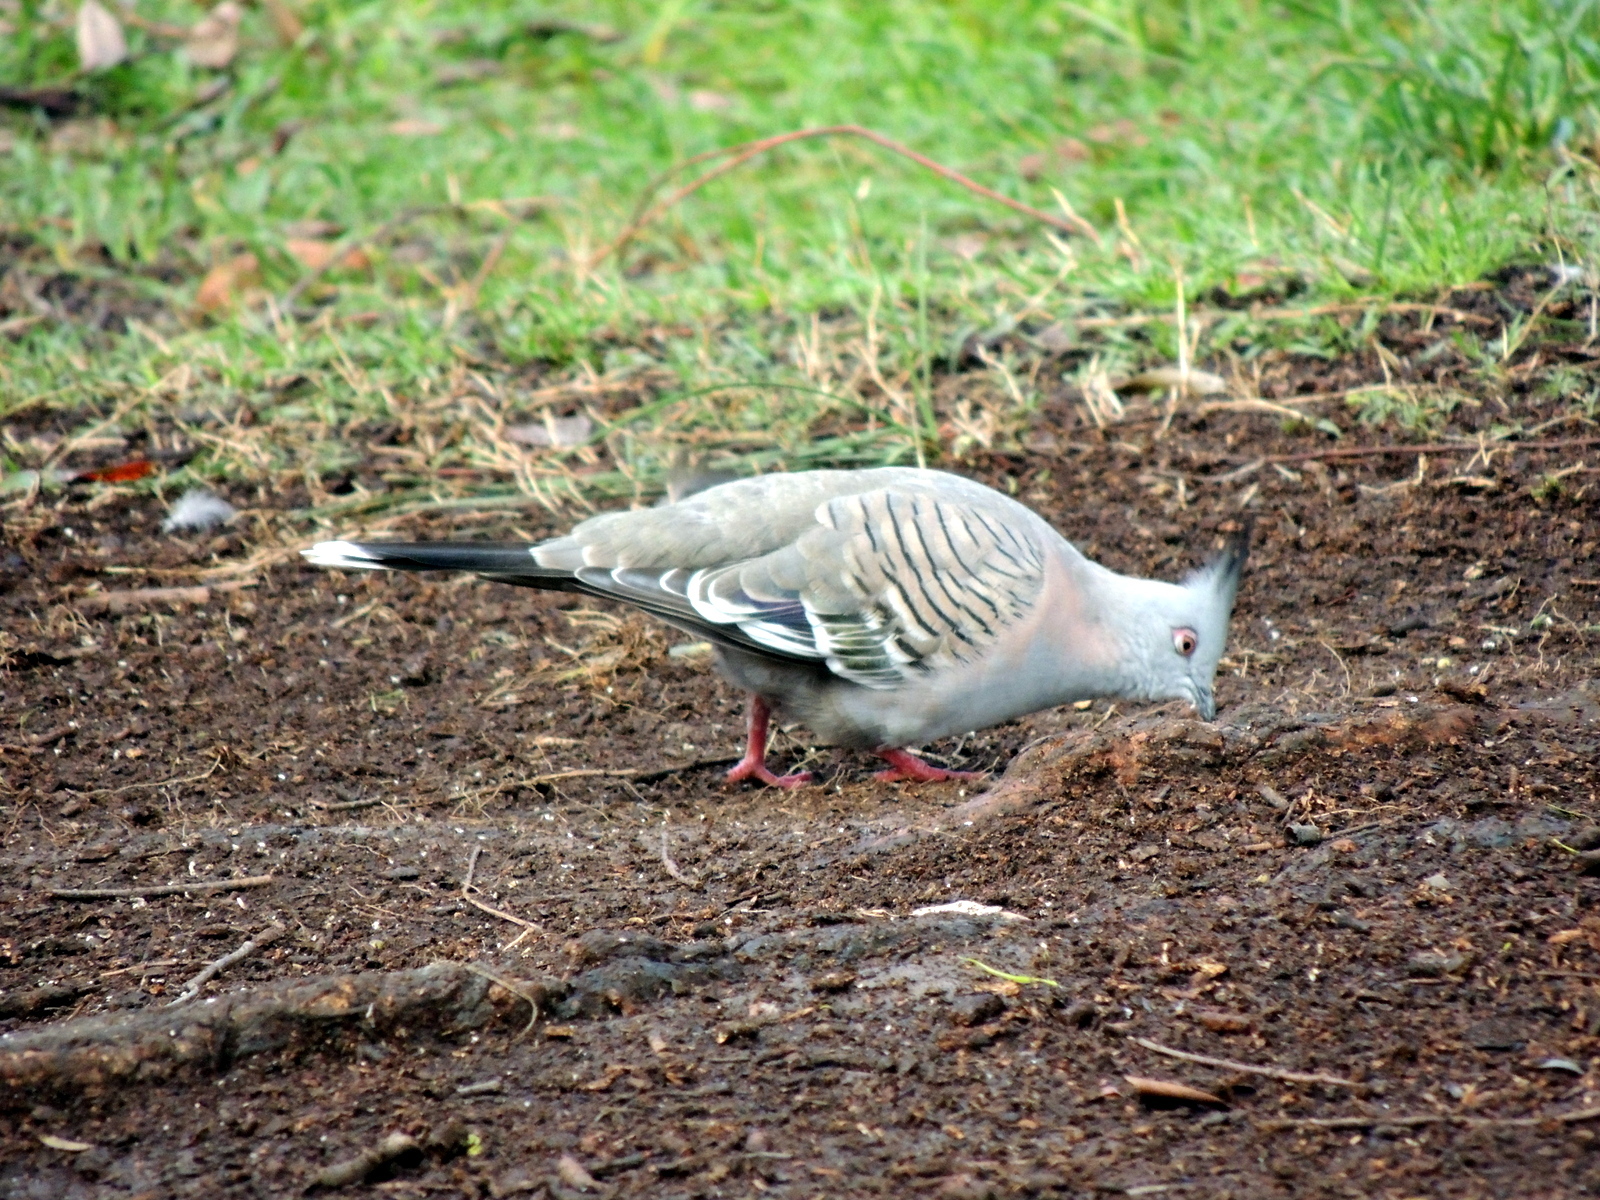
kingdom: Animalia
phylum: Chordata
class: Aves
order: Columbiformes
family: Columbidae
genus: Ocyphaps
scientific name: Ocyphaps lophotes
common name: Crested pigeon
